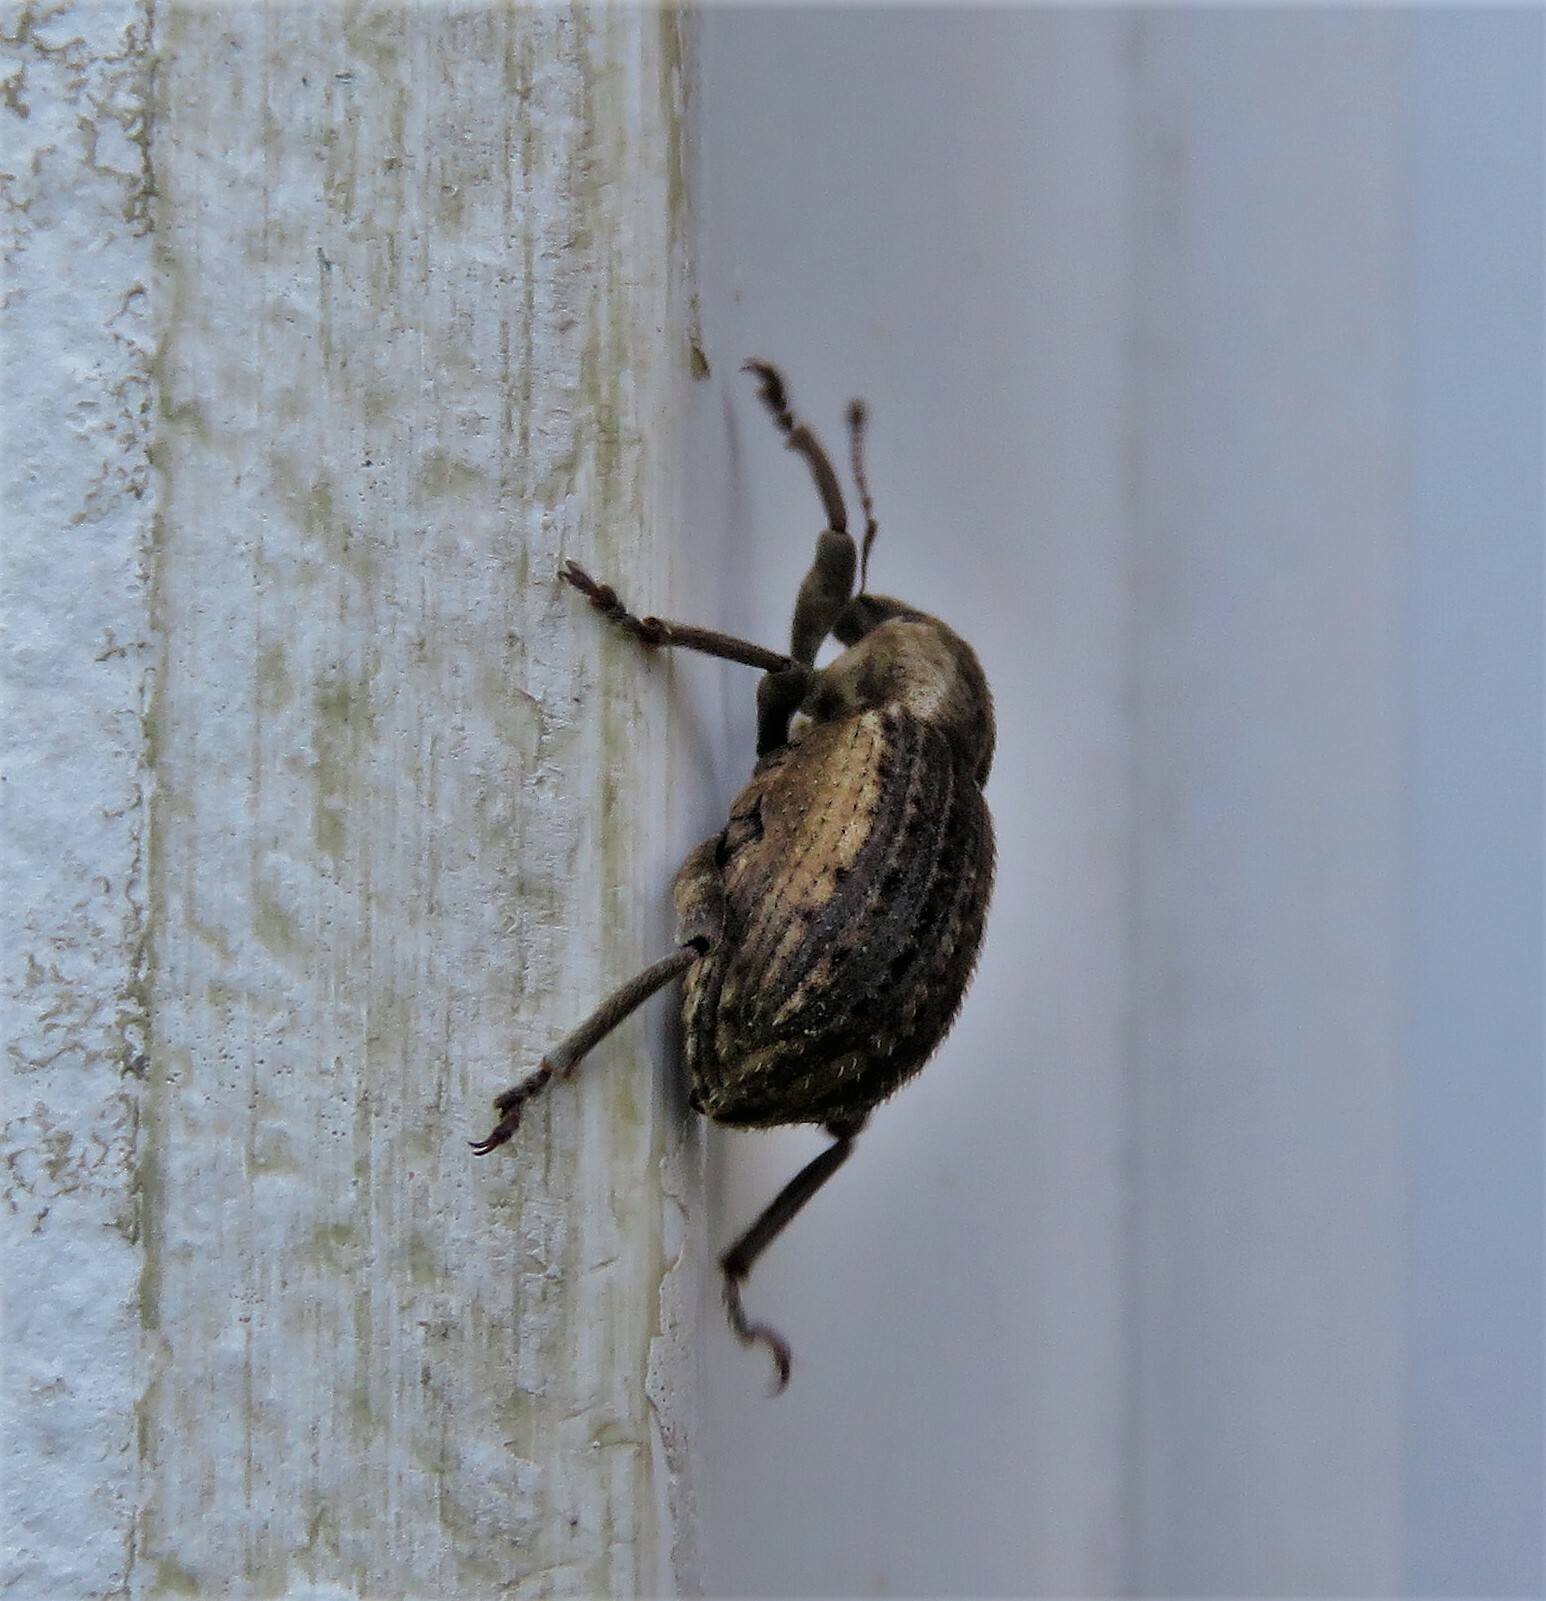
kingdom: Animalia
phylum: Arthropoda
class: Insecta
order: Coleoptera
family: Curculionidae
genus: Brachypera
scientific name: Brachypera zoilus
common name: Clover leaf weevil
